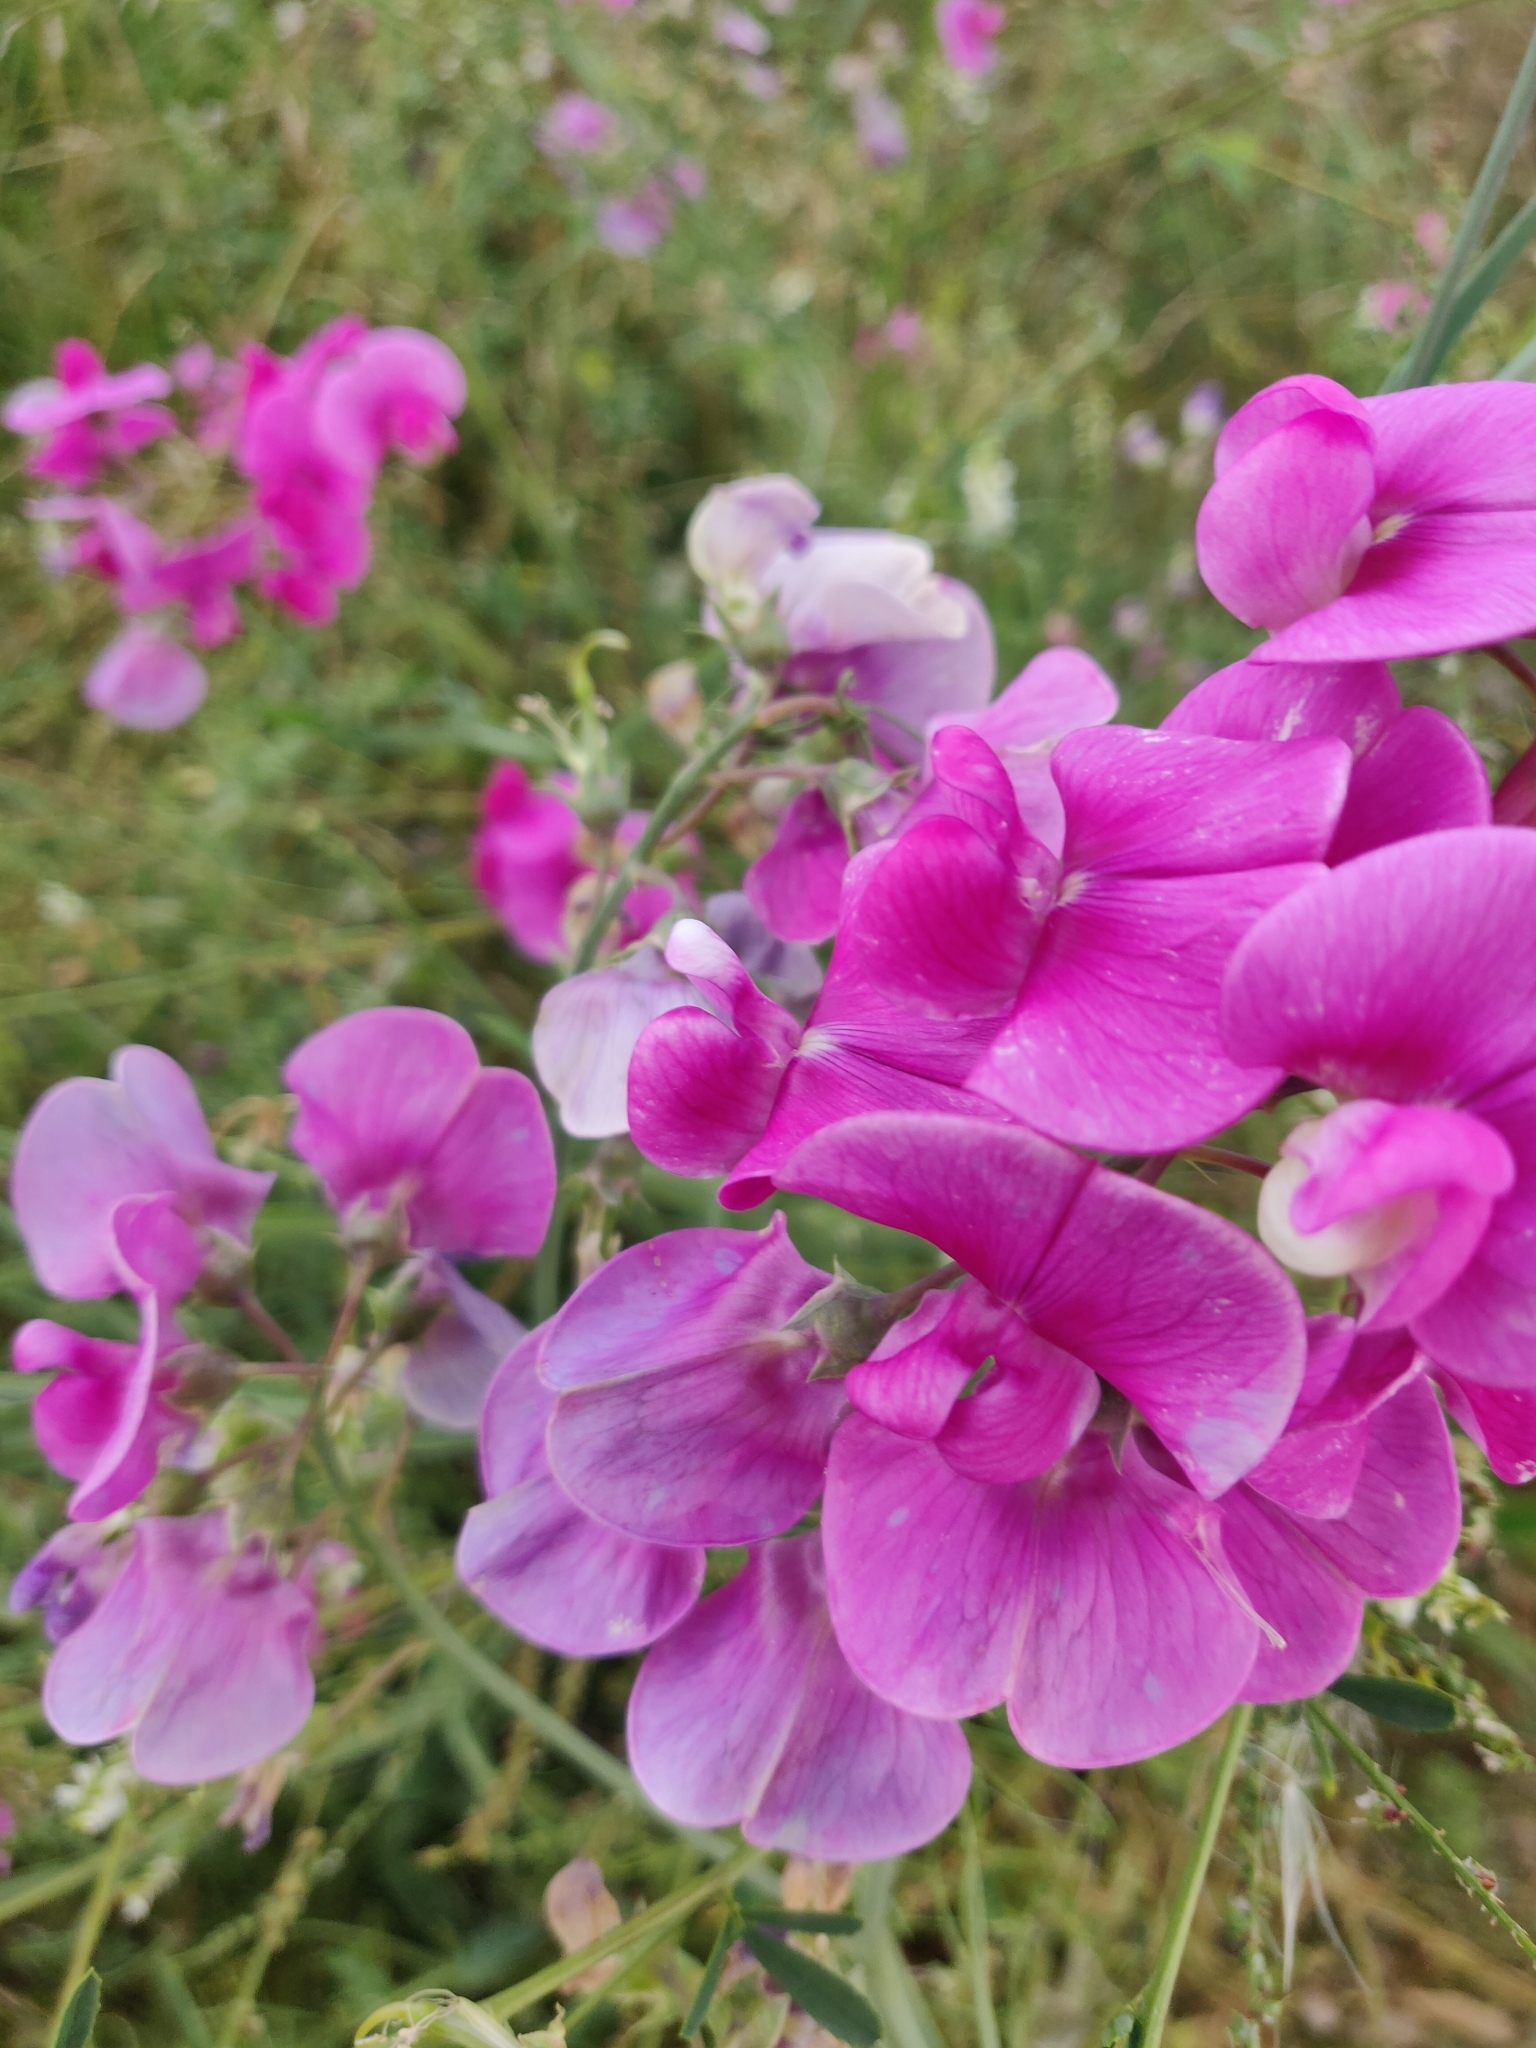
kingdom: Plantae
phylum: Tracheophyta
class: Magnoliopsida
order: Fabales
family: Fabaceae
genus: Lathyrus
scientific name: Lathyrus latifolius
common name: Perennial pea
